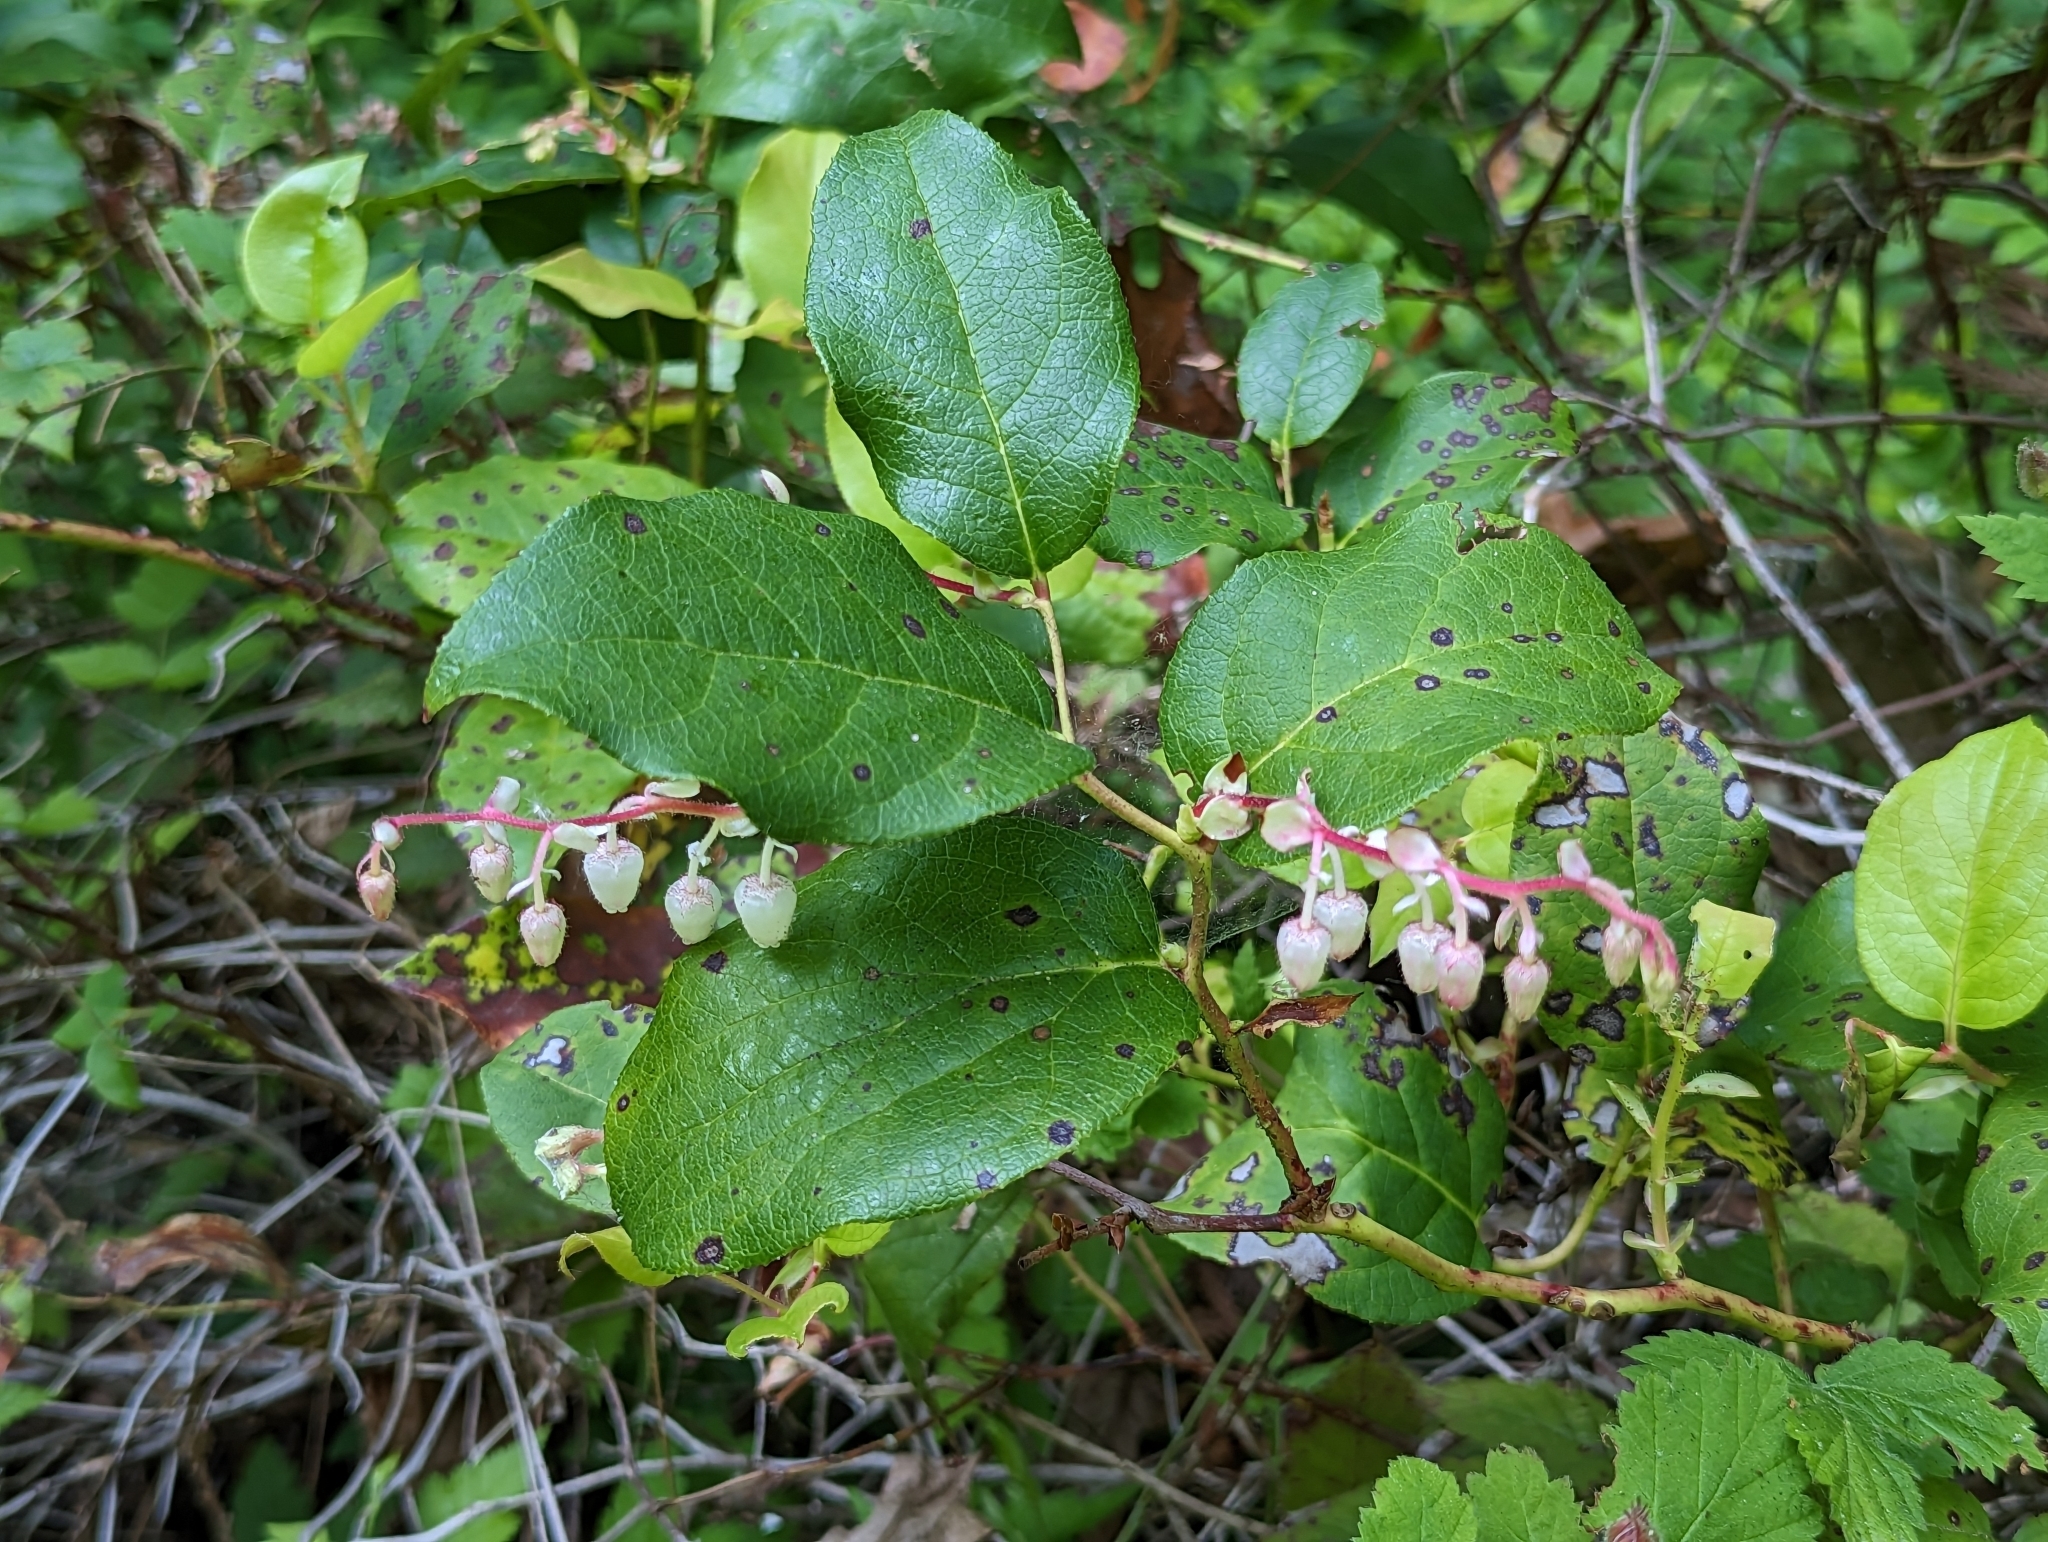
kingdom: Plantae
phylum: Tracheophyta
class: Magnoliopsida
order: Ericales
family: Ericaceae
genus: Gaultheria
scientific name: Gaultheria shallon
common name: Shallon
